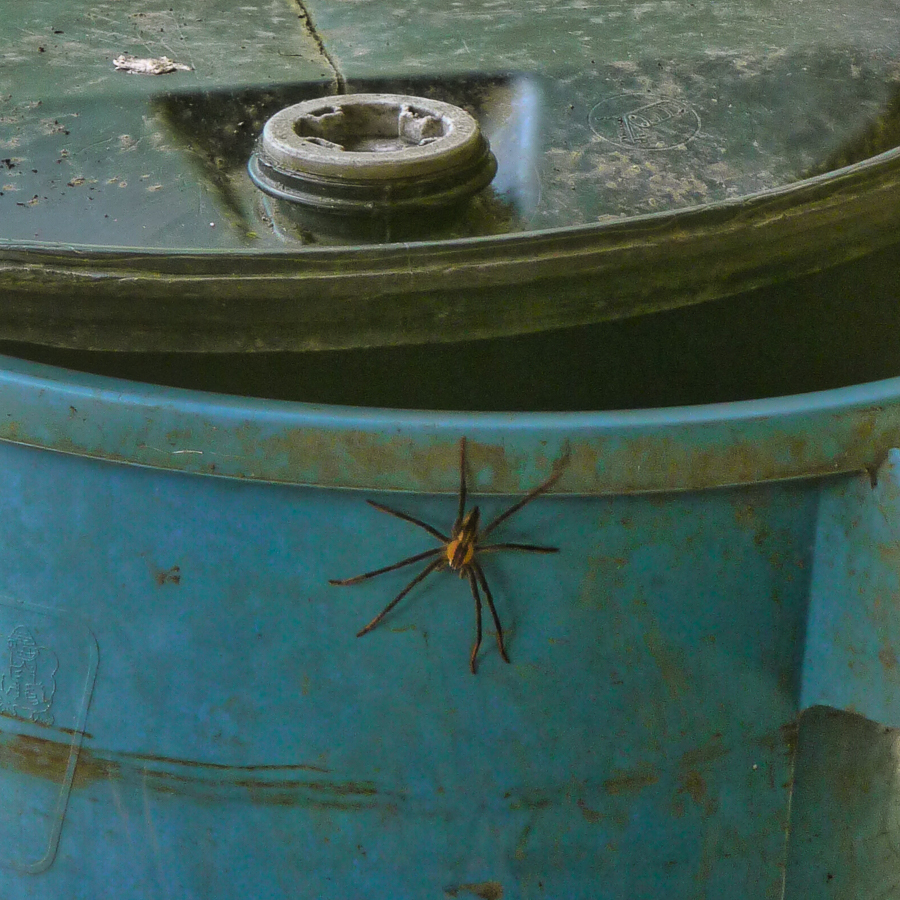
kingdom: Animalia
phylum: Arthropoda
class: Arachnida
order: Araneae
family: Trechaleidae
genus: Cupiennius
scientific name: Cupiennius getazi
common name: Wandering spiders
